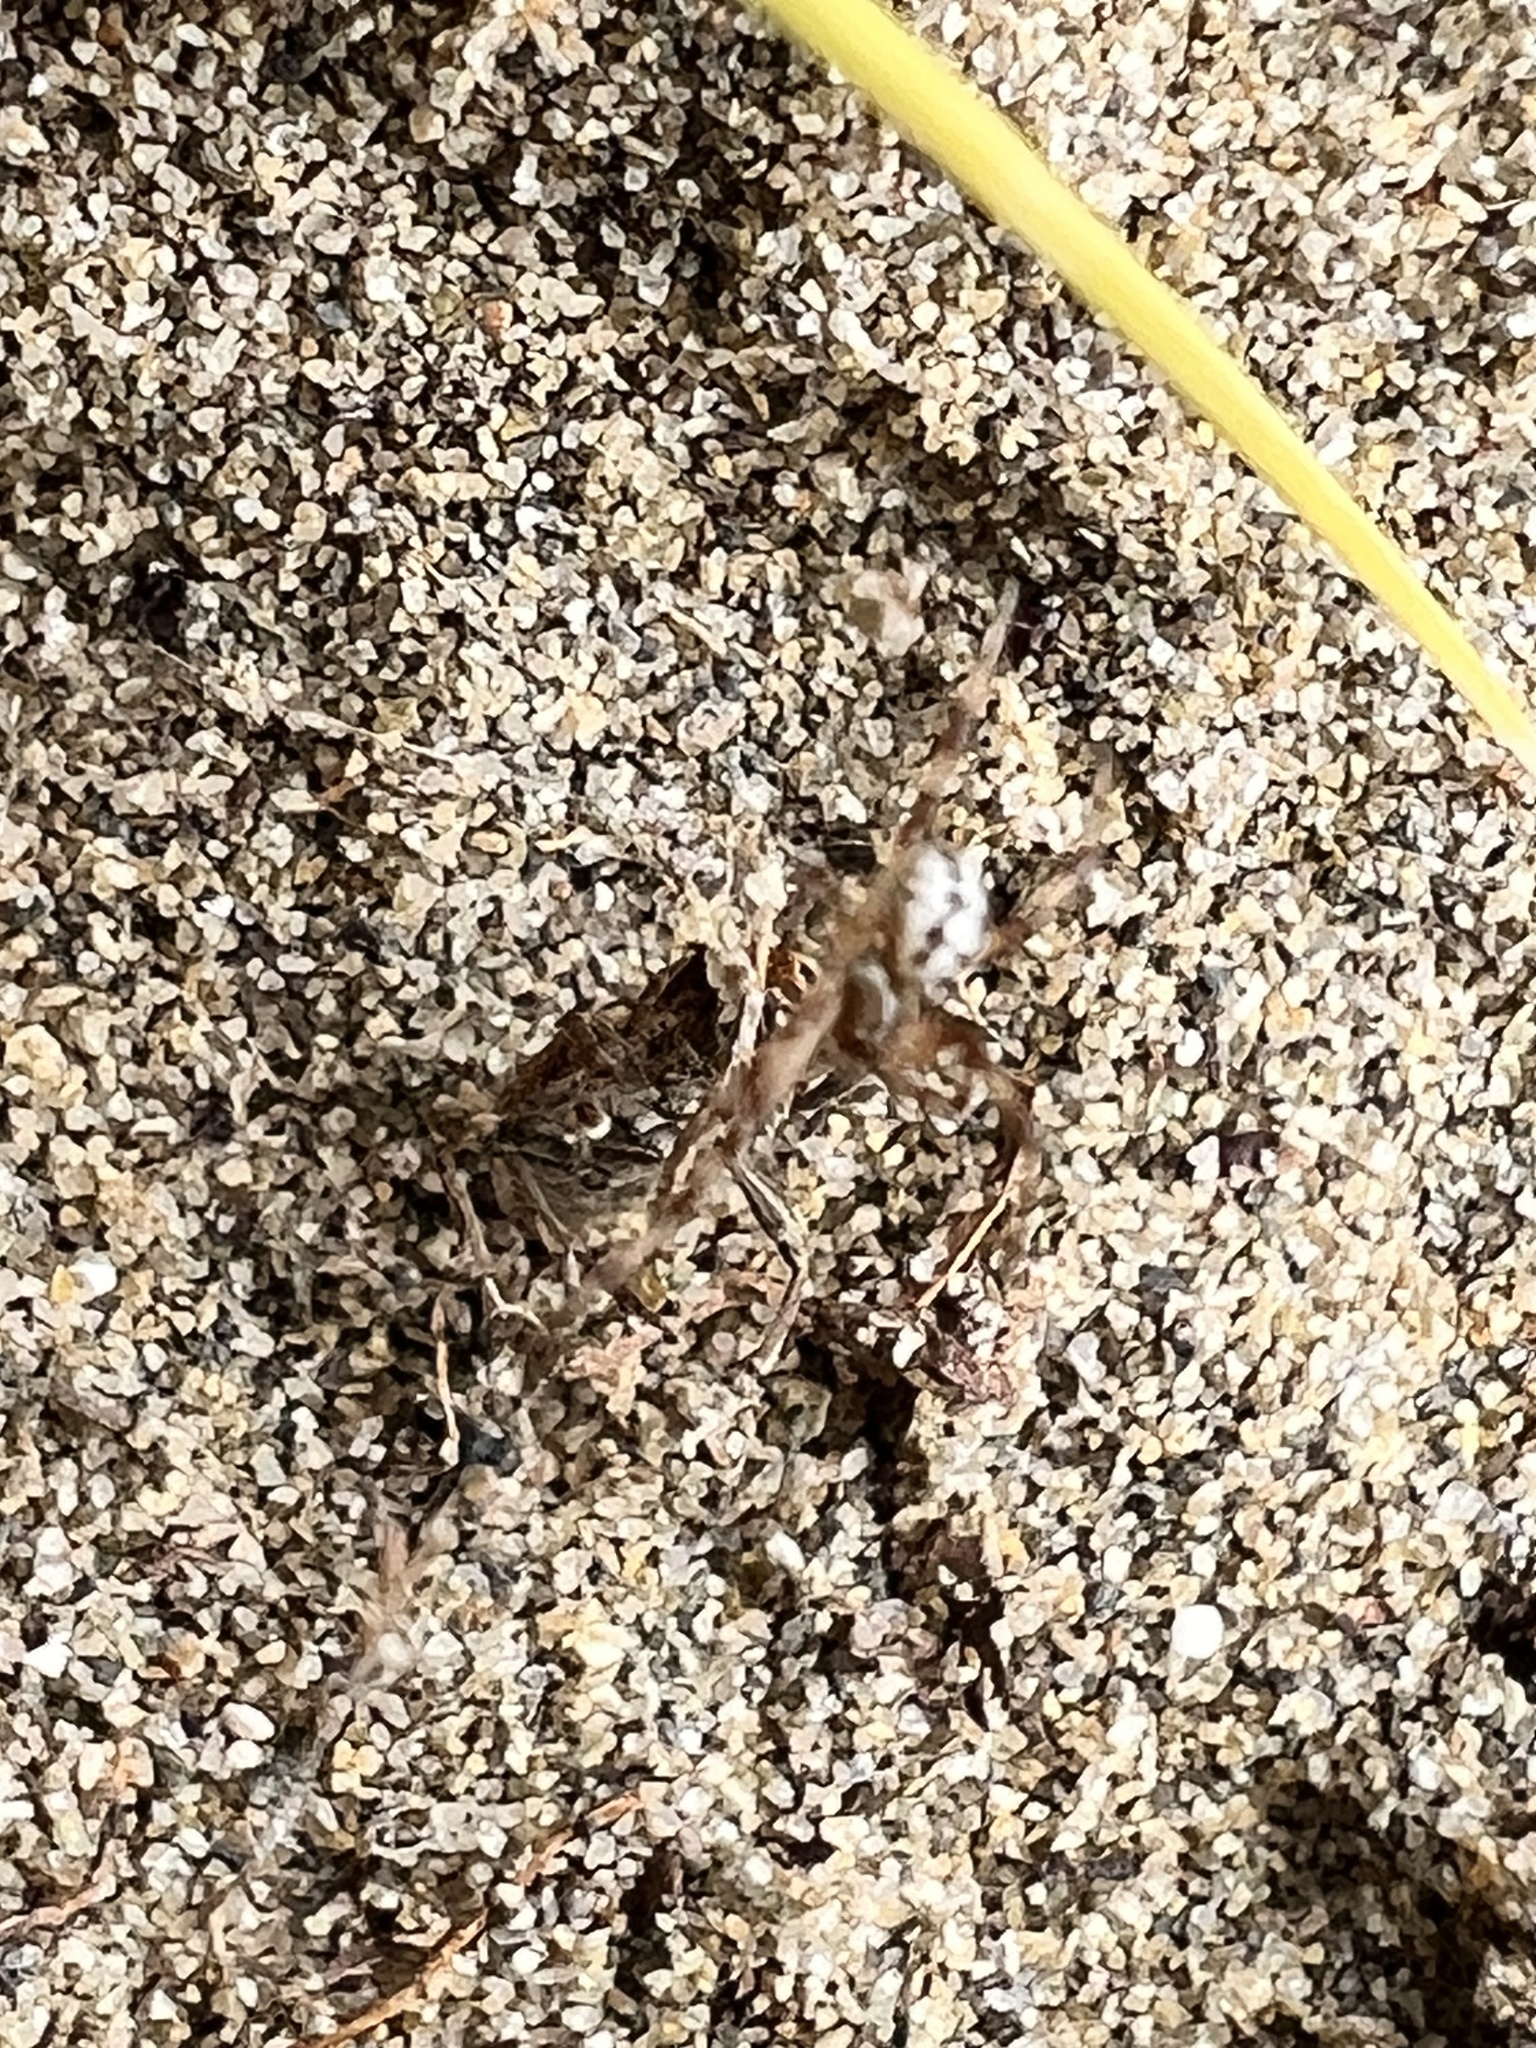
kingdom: Animalia
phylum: Arthropoda
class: Arachnida
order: Araneae
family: Theridiidae
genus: Latrodectus
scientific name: Latrodectus katipo
